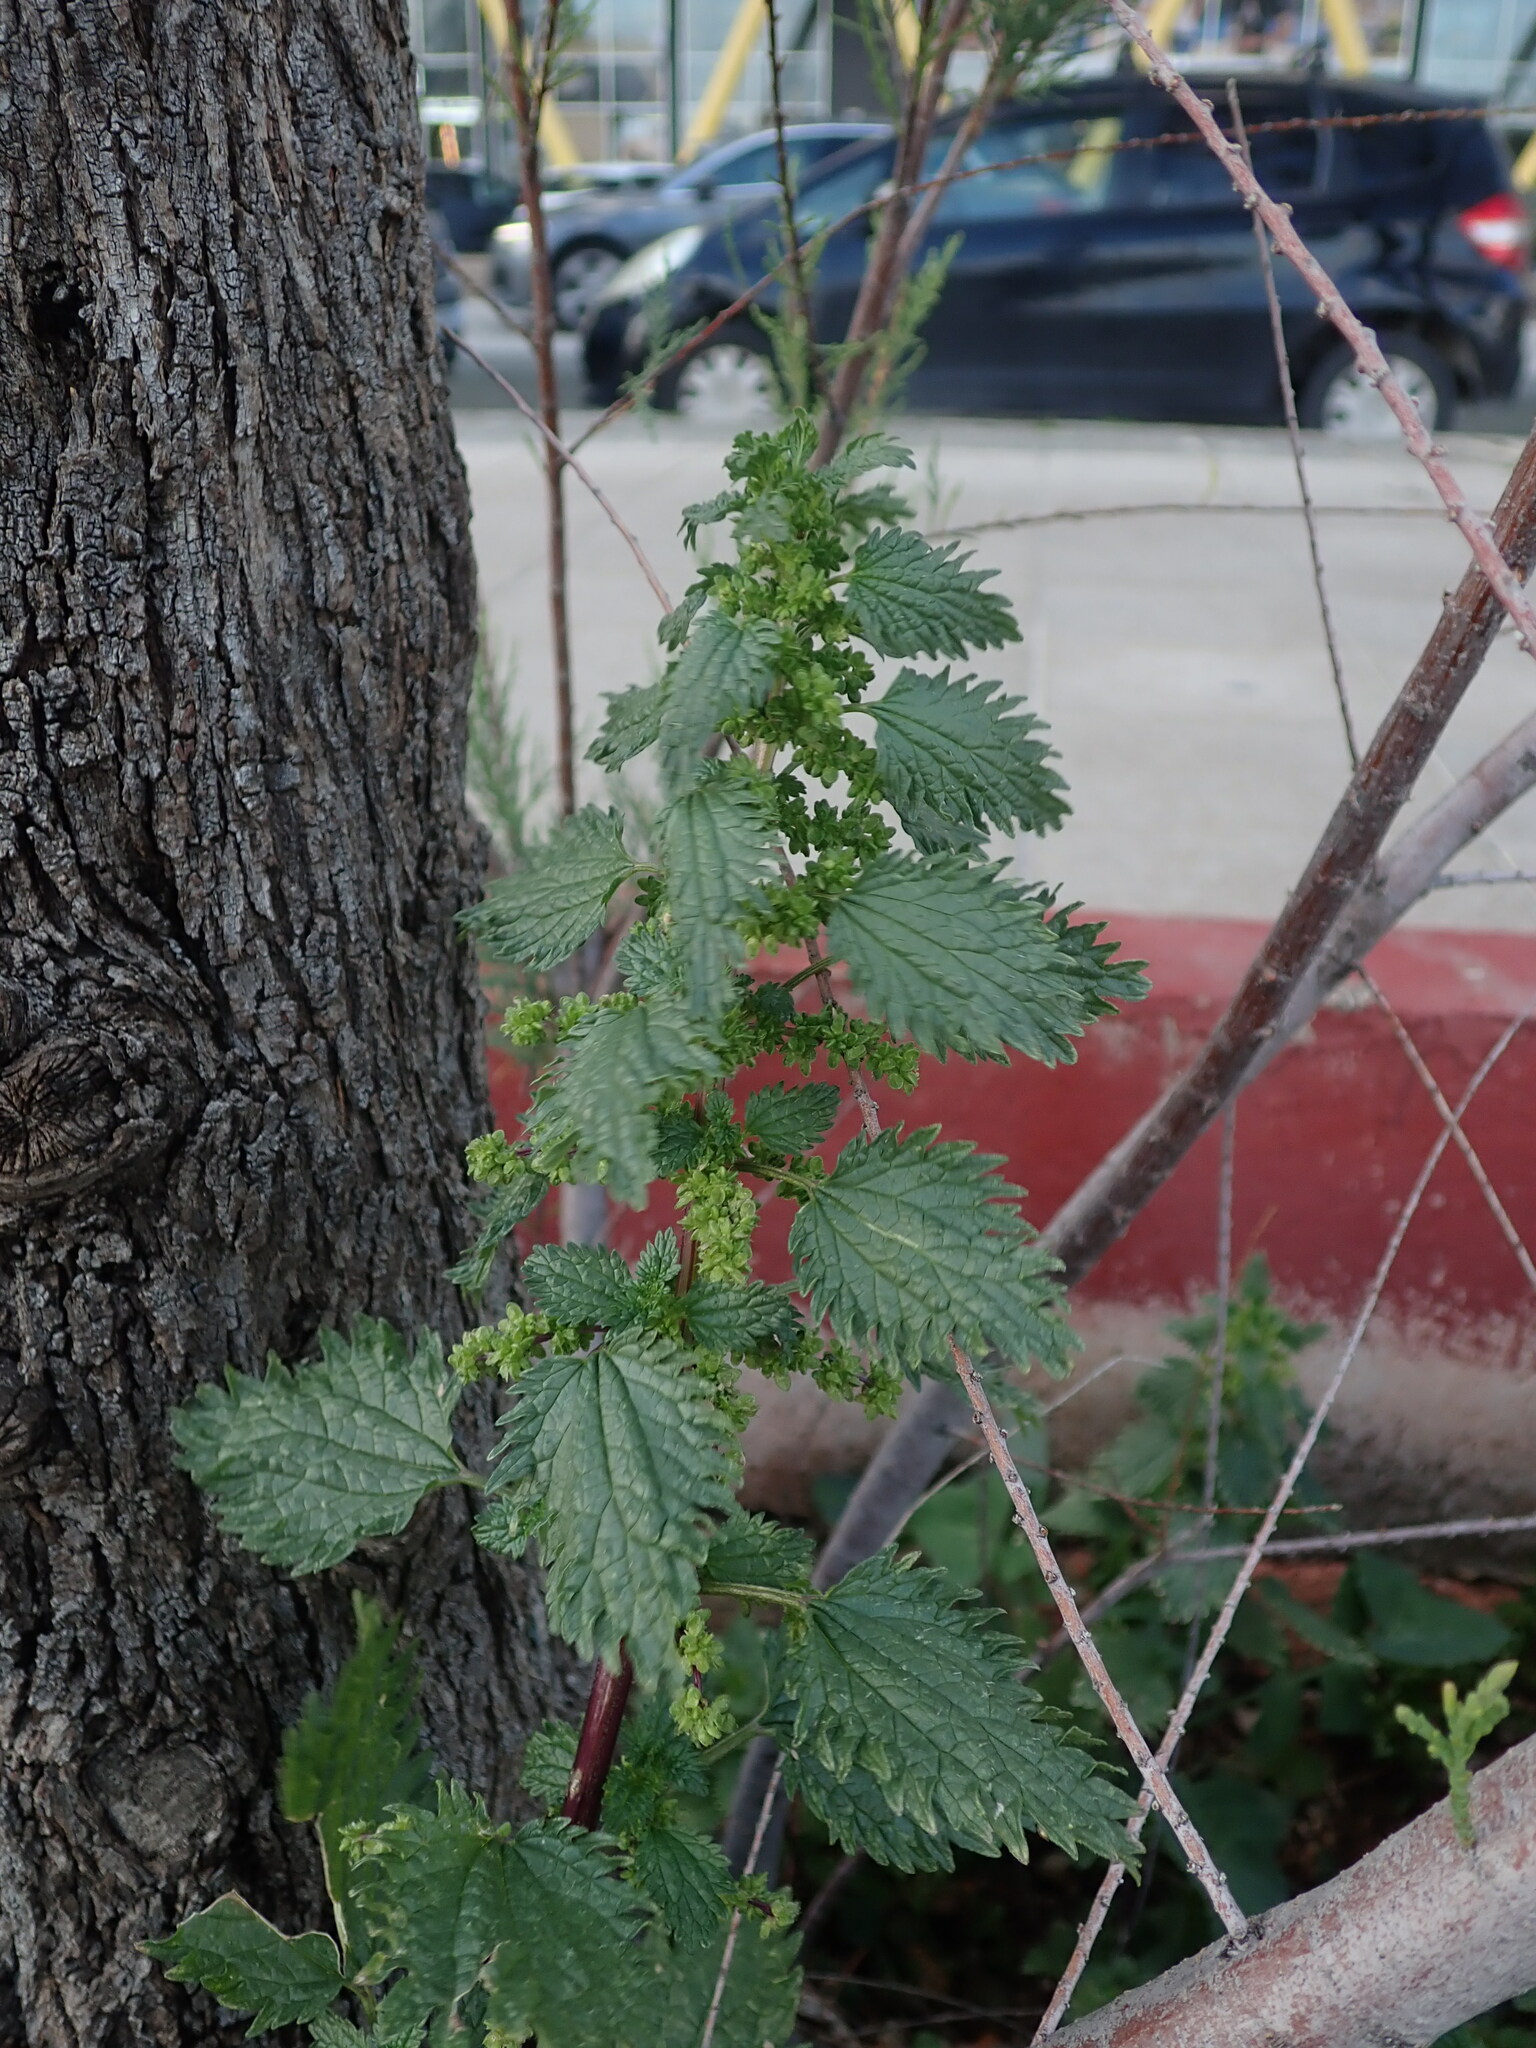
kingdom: Plantae
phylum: Tracheophyta
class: Magnoliopsida
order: Rosales
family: Urticaceae
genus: Urtica
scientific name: Urtica urens
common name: Dwarf nettle
